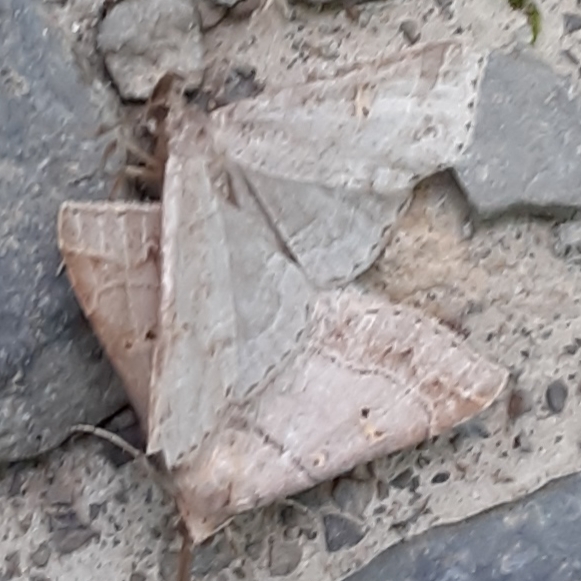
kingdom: Animalia
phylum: Arthropoda
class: Insecta
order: Lepidoptera
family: Erebidae
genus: Renia
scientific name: Renia flavipunctalis
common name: Yellow-spotted renia moth
